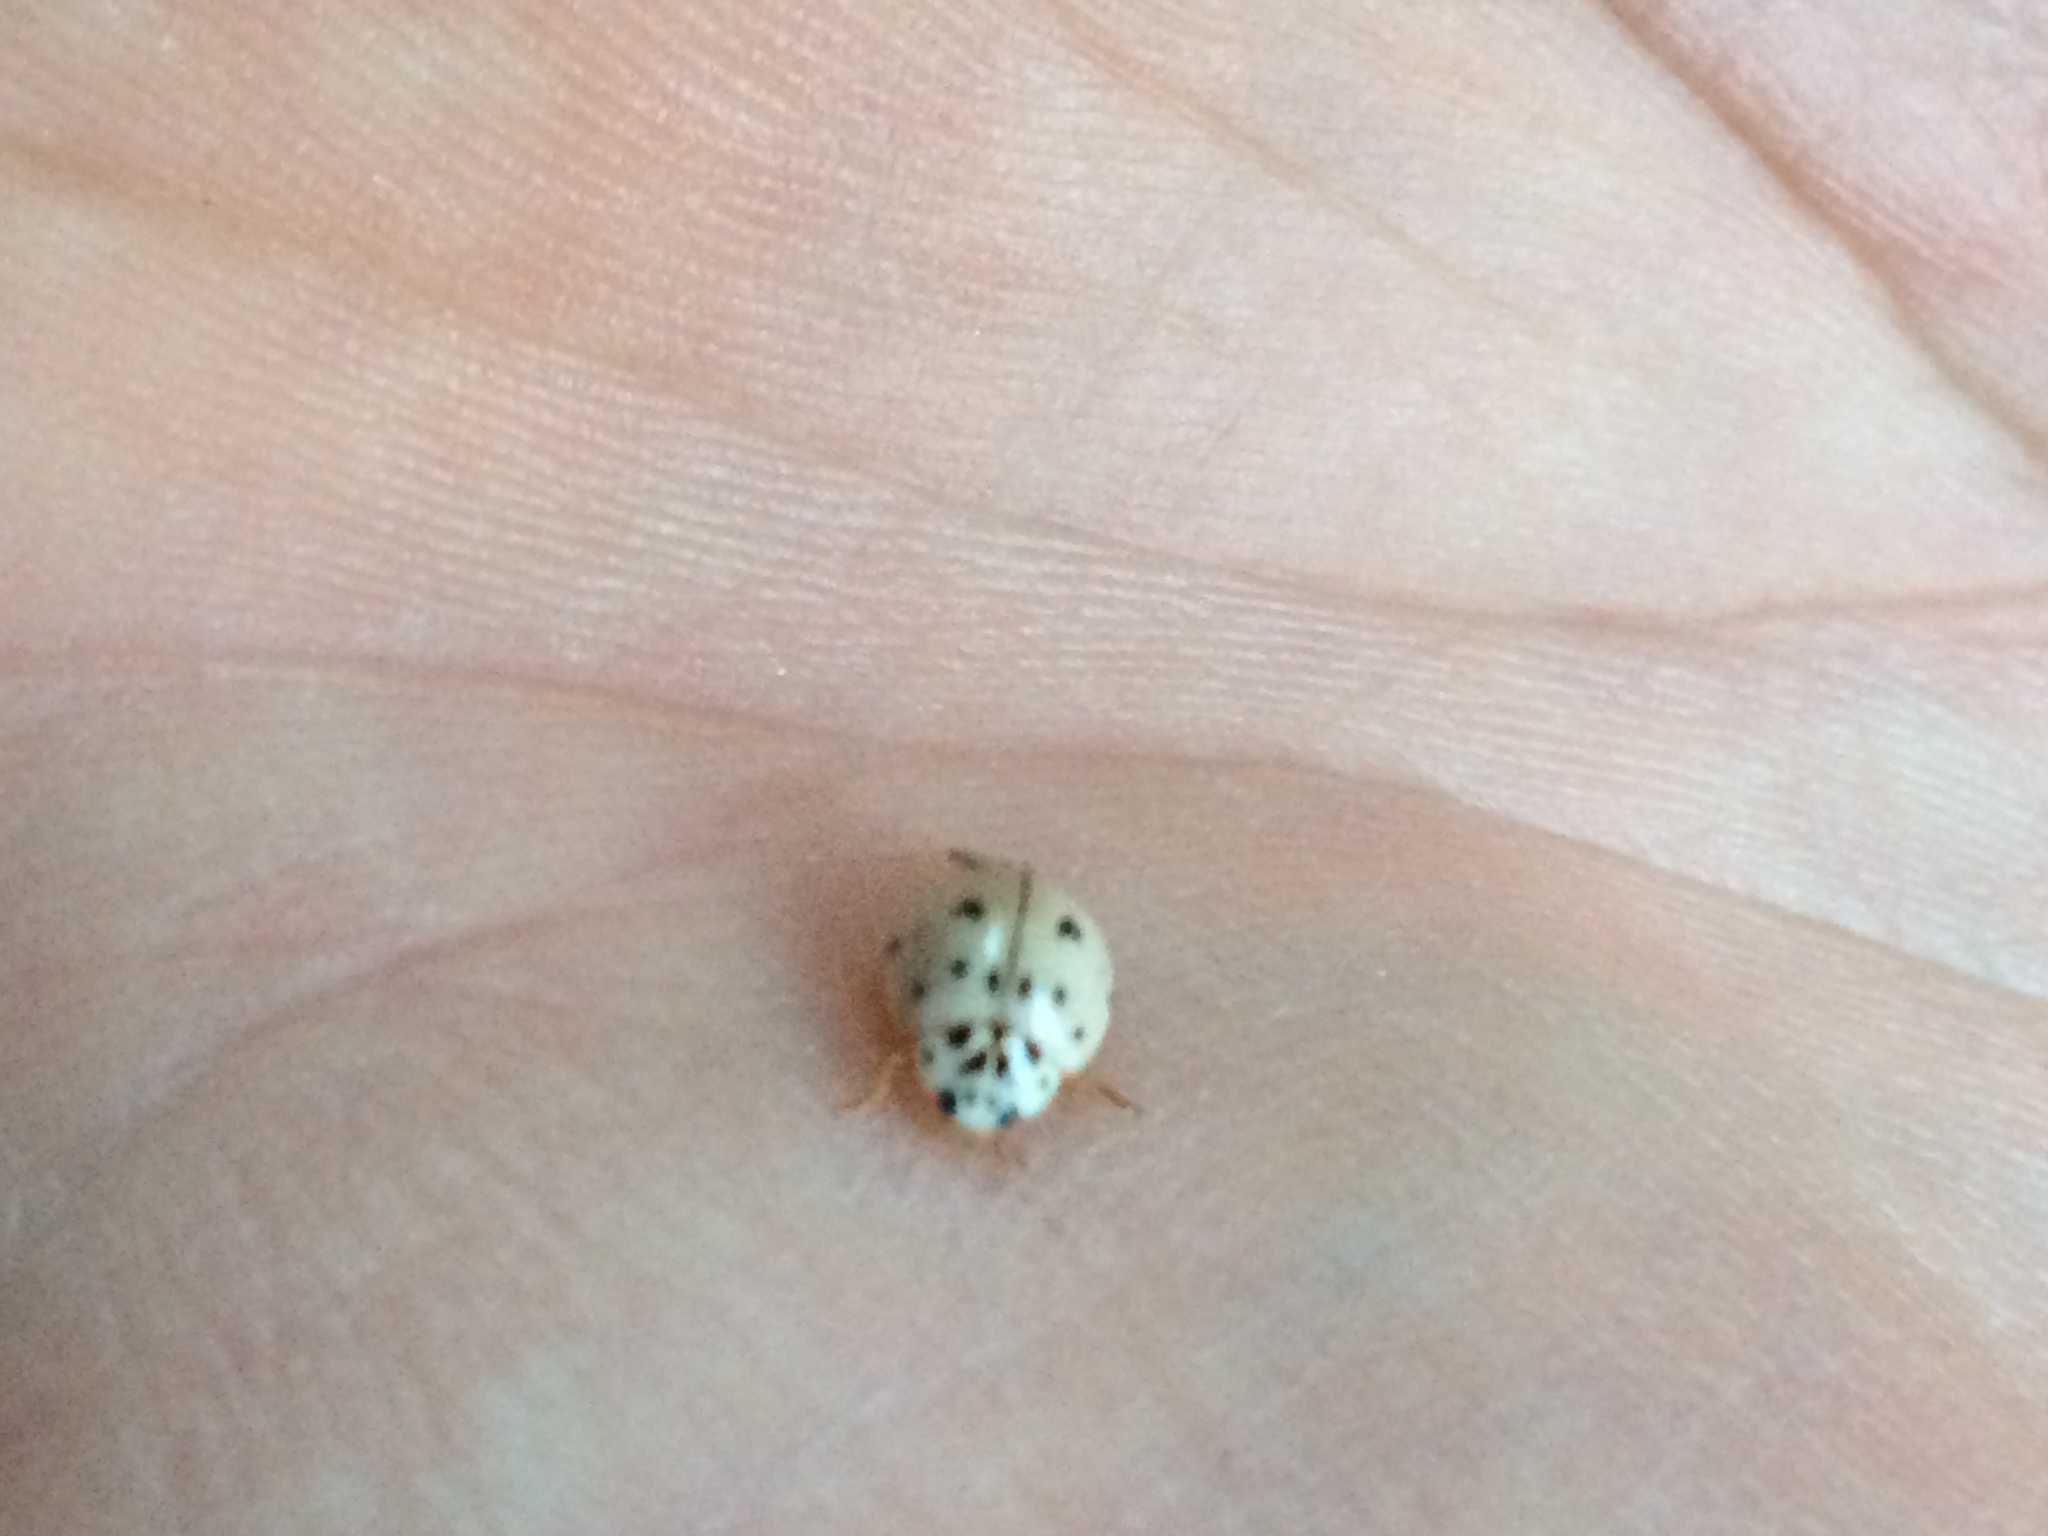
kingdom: Animalia
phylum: Arthropoda
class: Insecta
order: Coleoptera
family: Coccinellidae
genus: Olla
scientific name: Olla v-nigrum
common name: Ashy gray lady beetle
